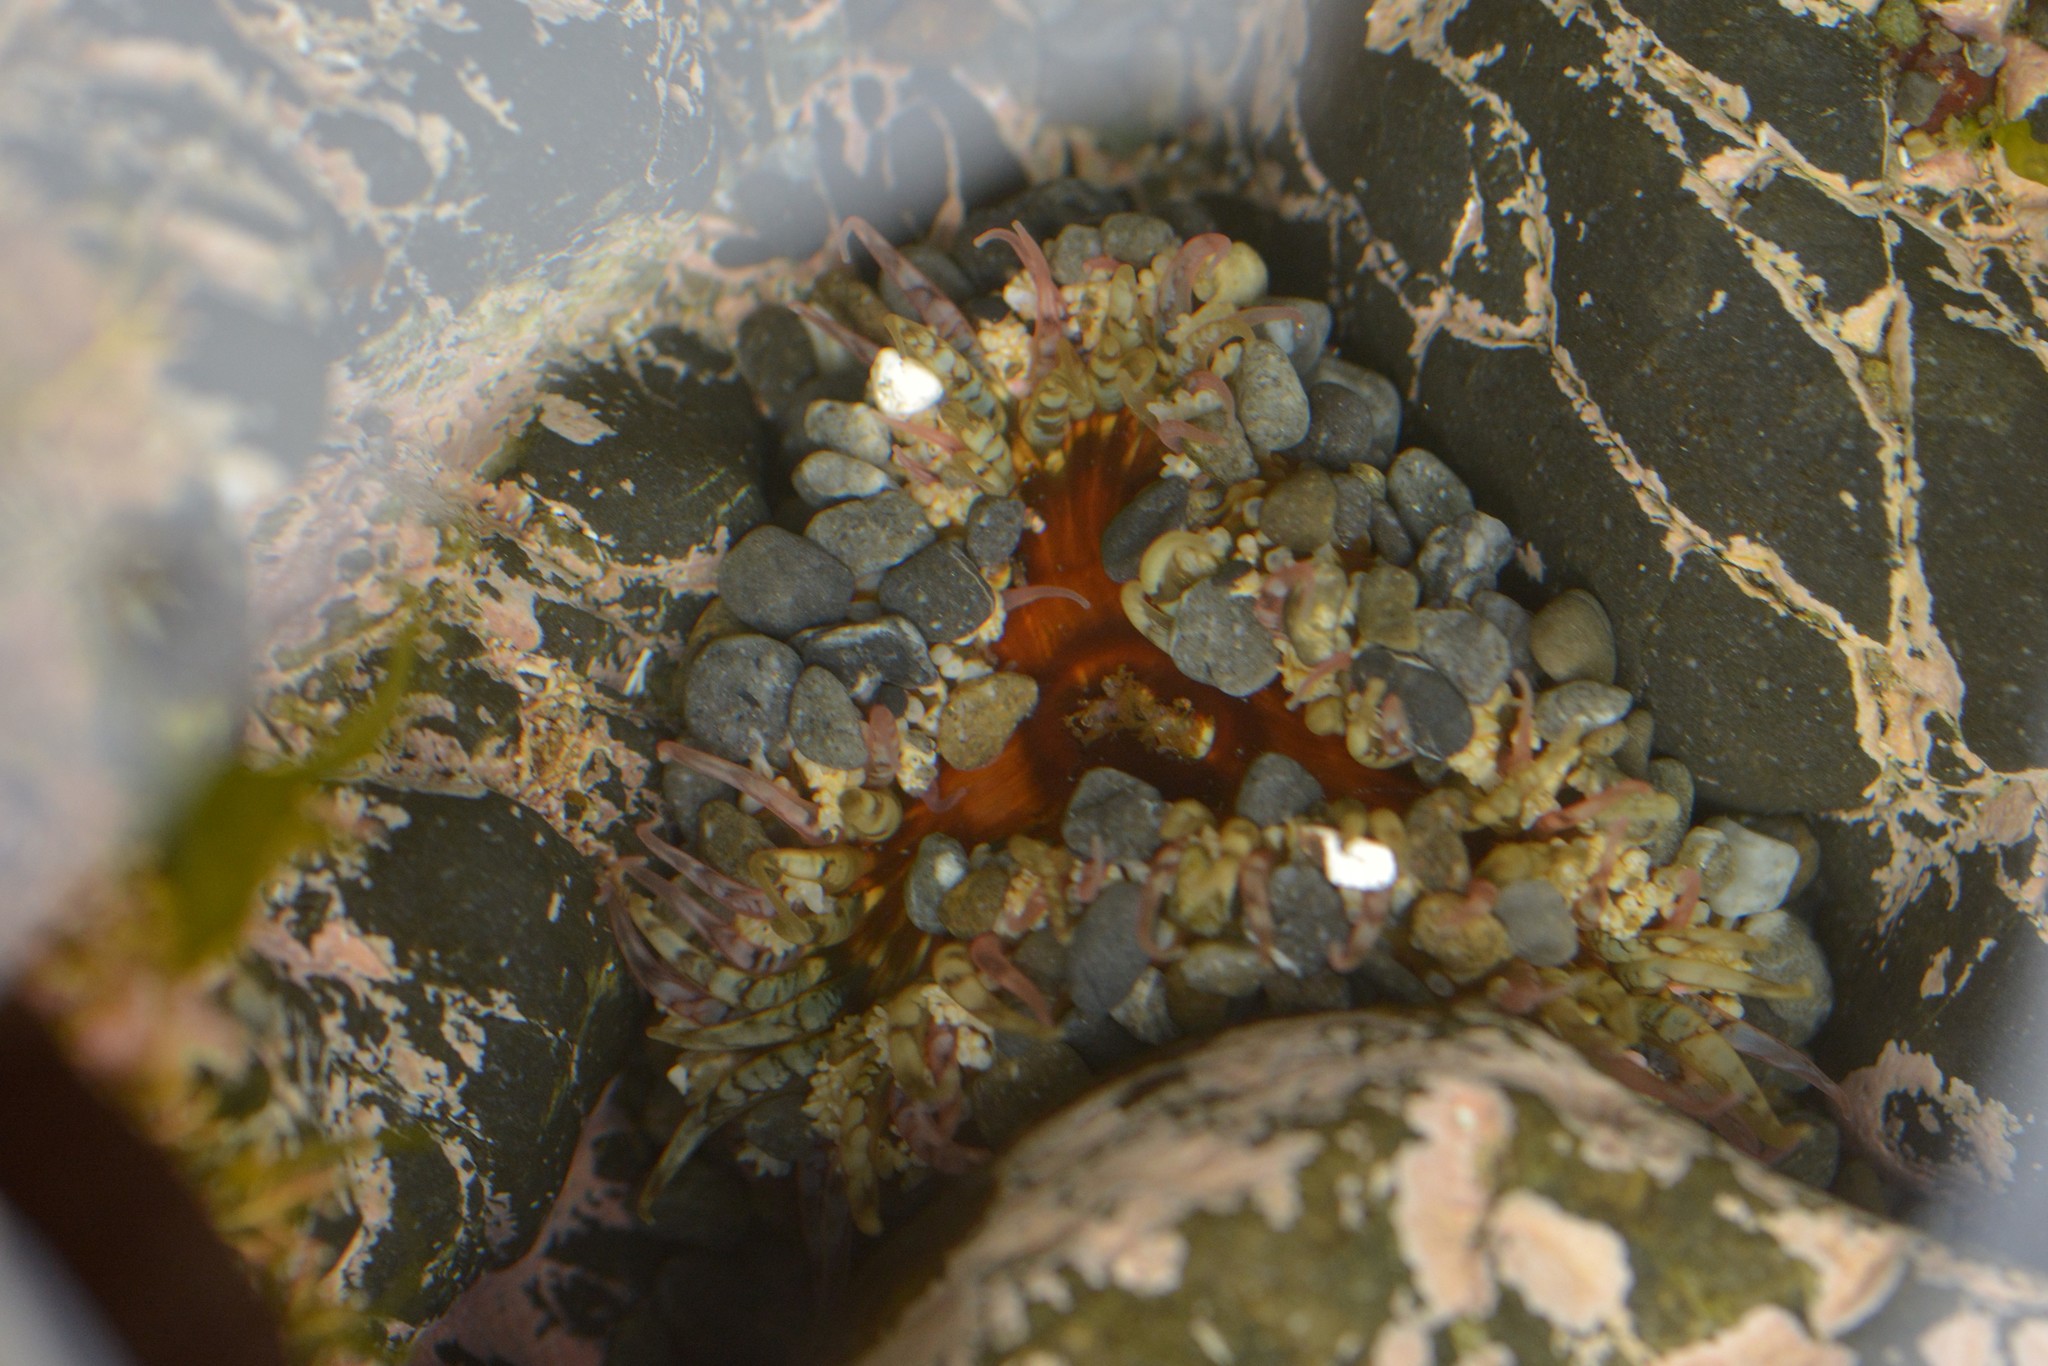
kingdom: Animalia
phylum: Cnidaria
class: Anthozoa
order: Actiniaria
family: Actiniidae
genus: Oulactis
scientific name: Oulactis muscosa
